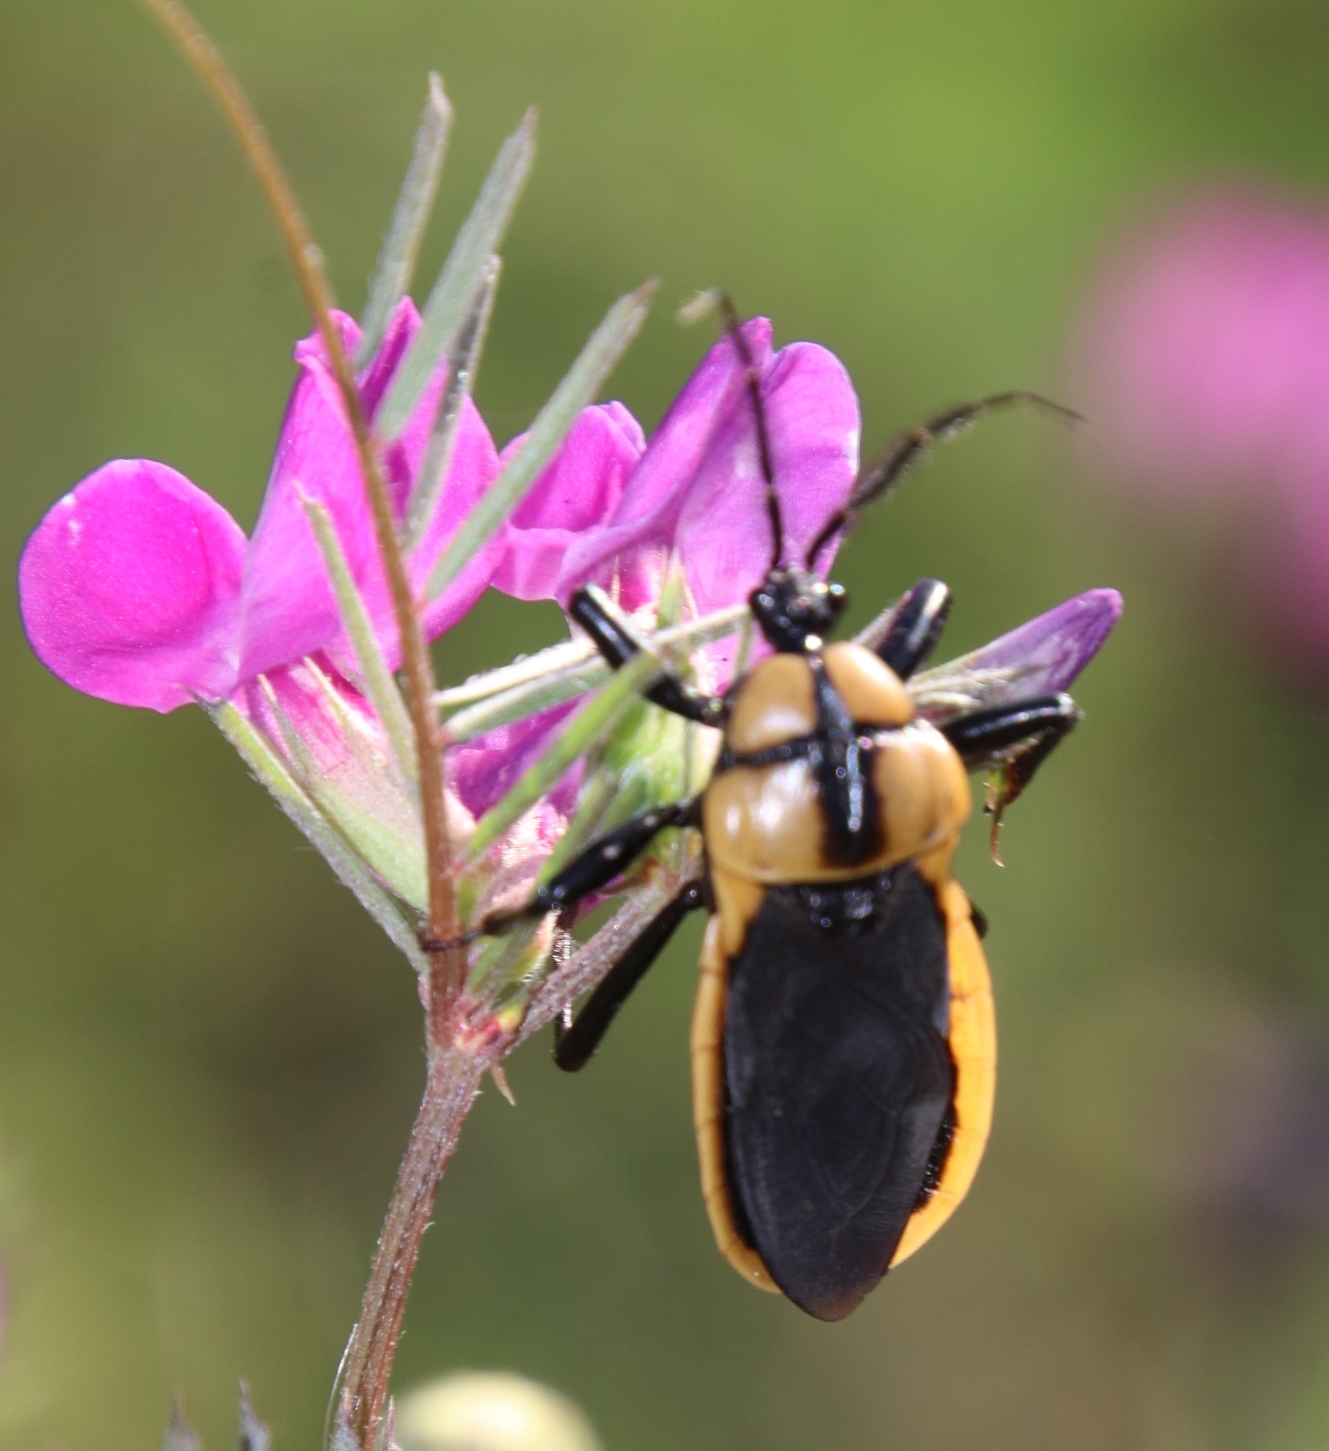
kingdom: Animalia
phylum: Arthropoda
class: Insecta
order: Hemiptera
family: Reduviidae
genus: Ectrichodia
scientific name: Ectrichodia crux
